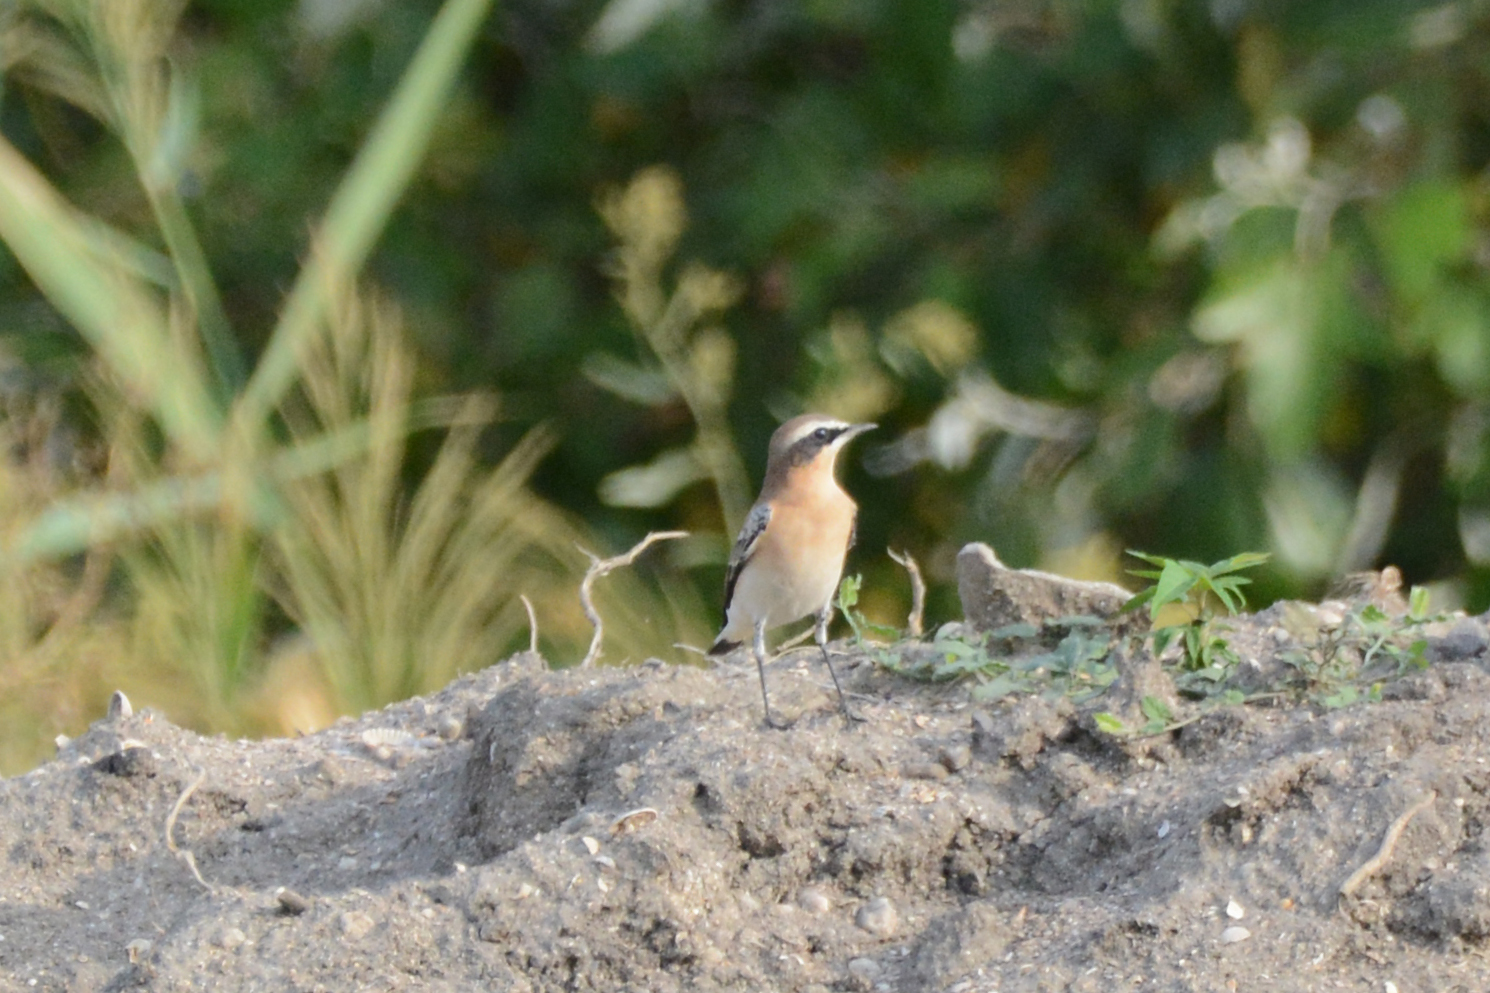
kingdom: Animalia
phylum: Chordata
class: Aves
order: Passeriformes
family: Muscicapidae
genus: Oenanthe
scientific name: Oenanthe oenanthe
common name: Northern wheatear
